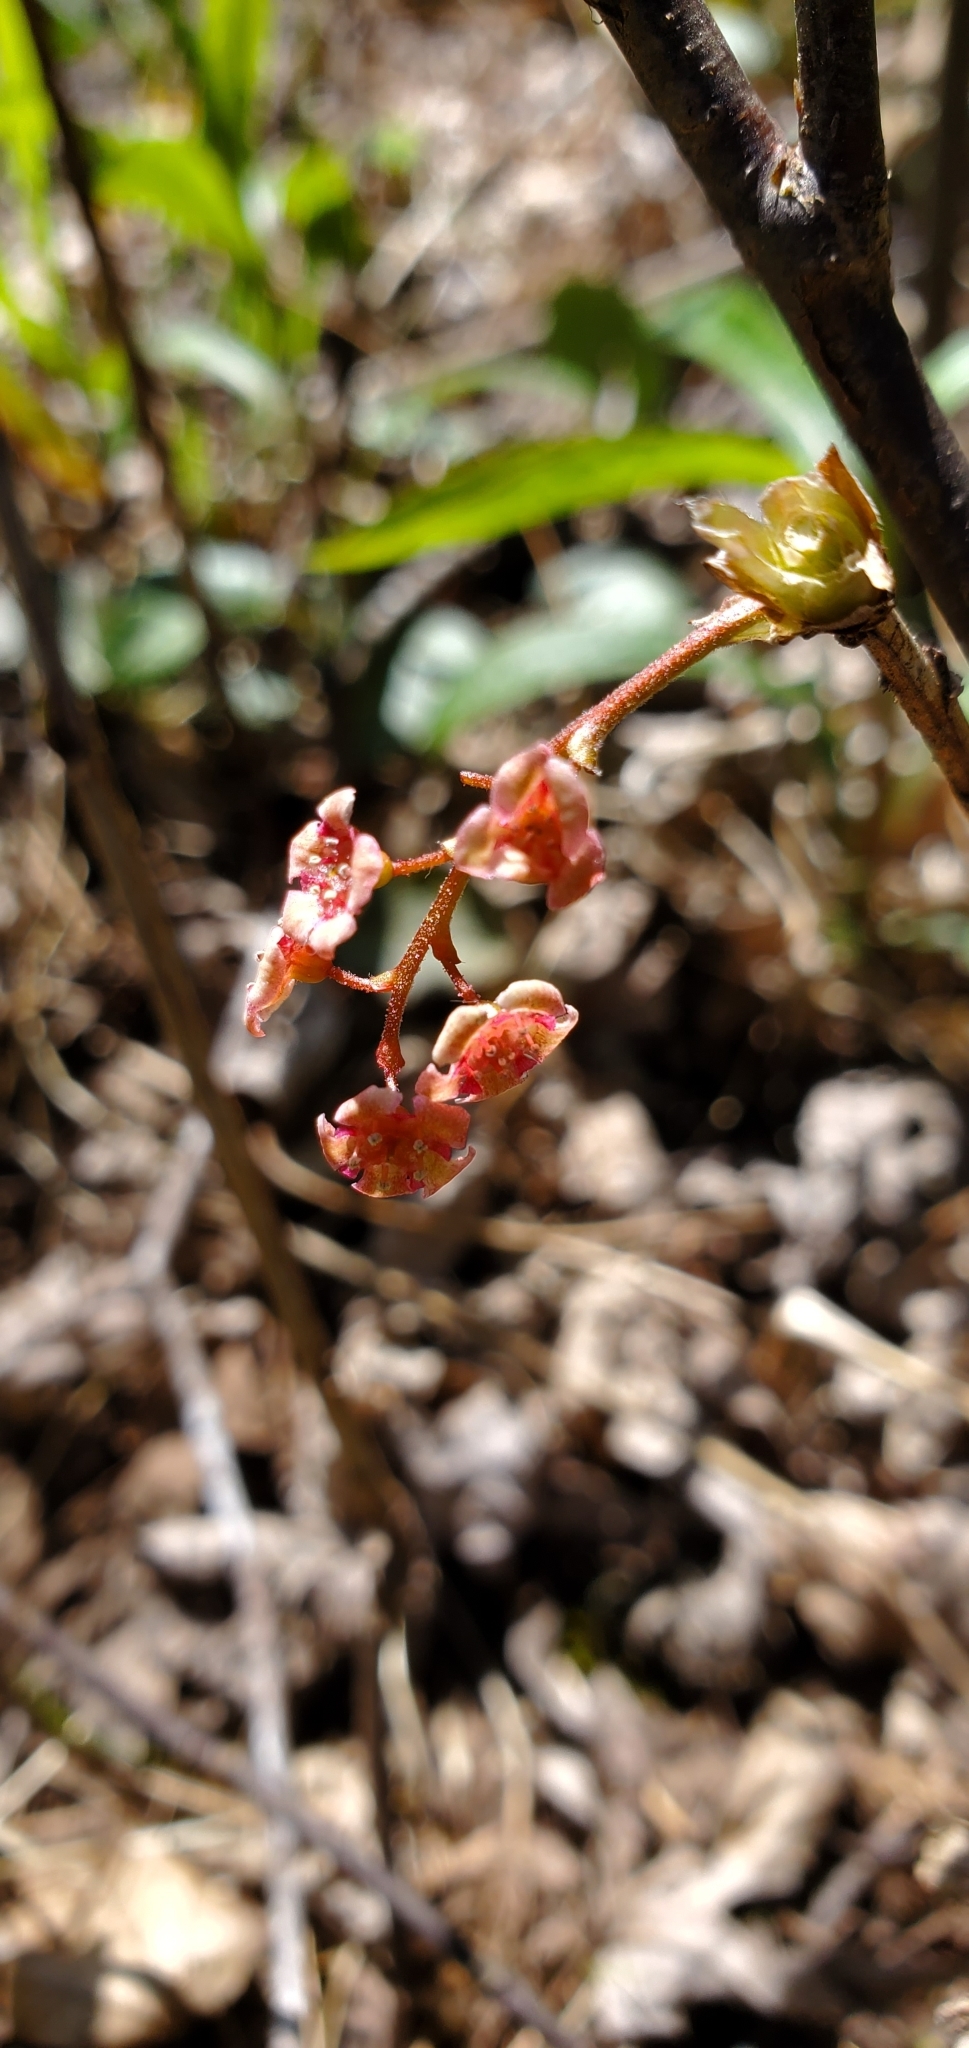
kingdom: Plantae
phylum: Tracheophyta
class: Magnoliopsida
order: Saxifragales
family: Grossulariaceae
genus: Ribes
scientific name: Ribes triste
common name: Swamp red currant
